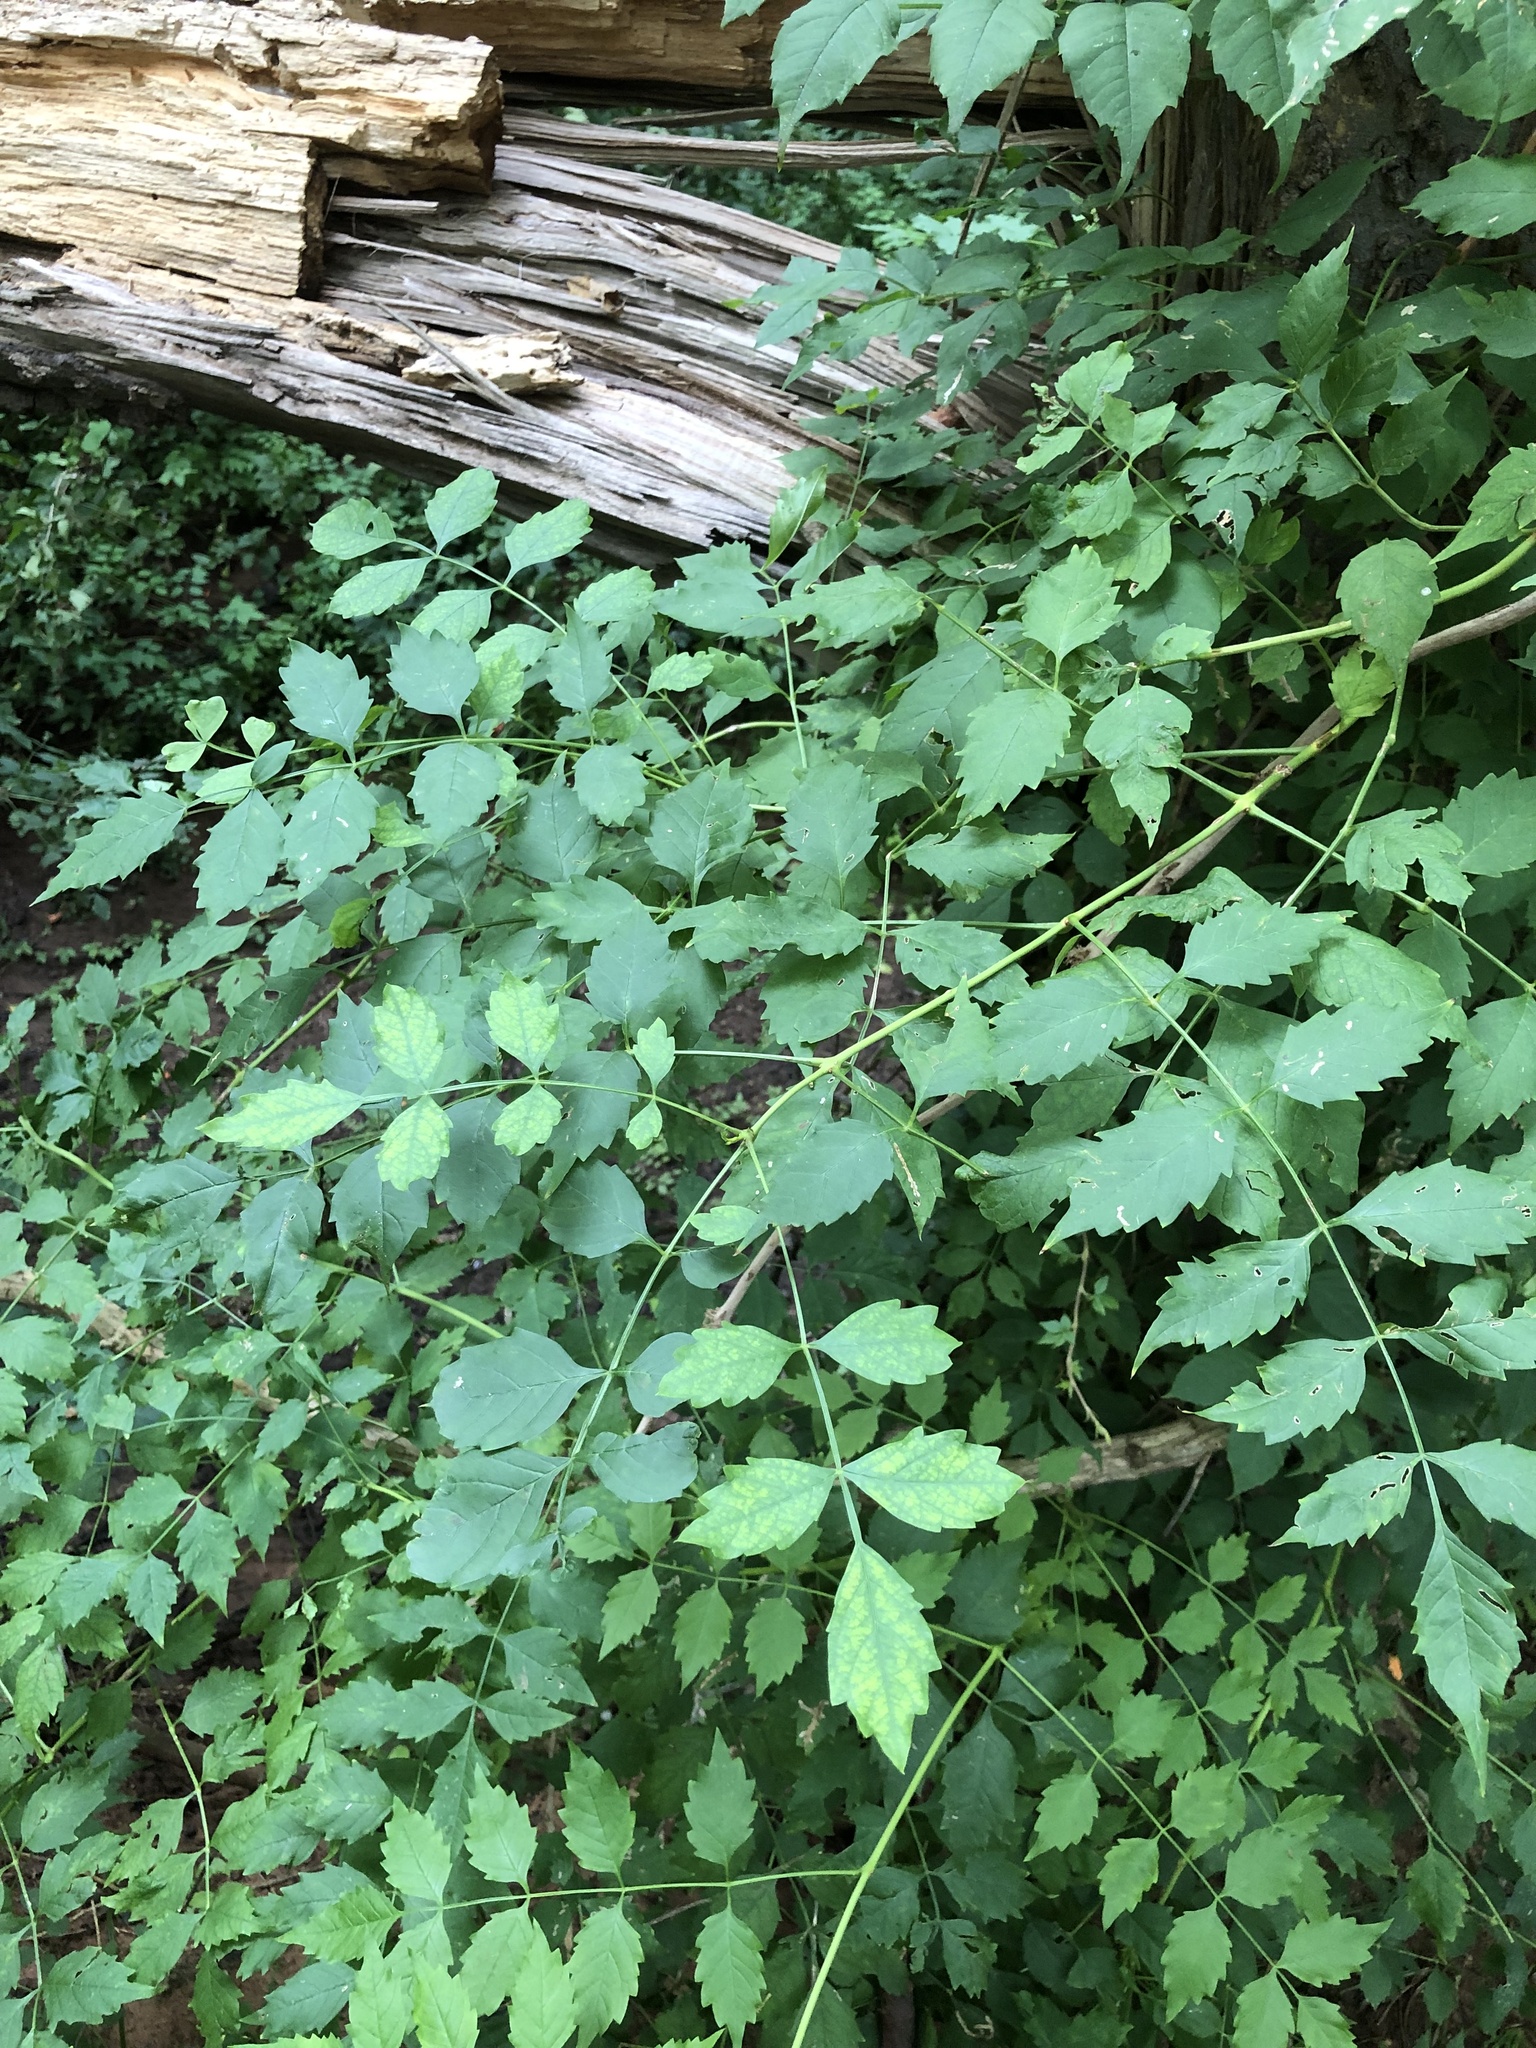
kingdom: Plantae
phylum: Tracheophyta
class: Magnoliopsida
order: Lamiales
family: Bignoniaceae
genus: Campsis
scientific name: Campsis radicans
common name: Trumpet-creeper
